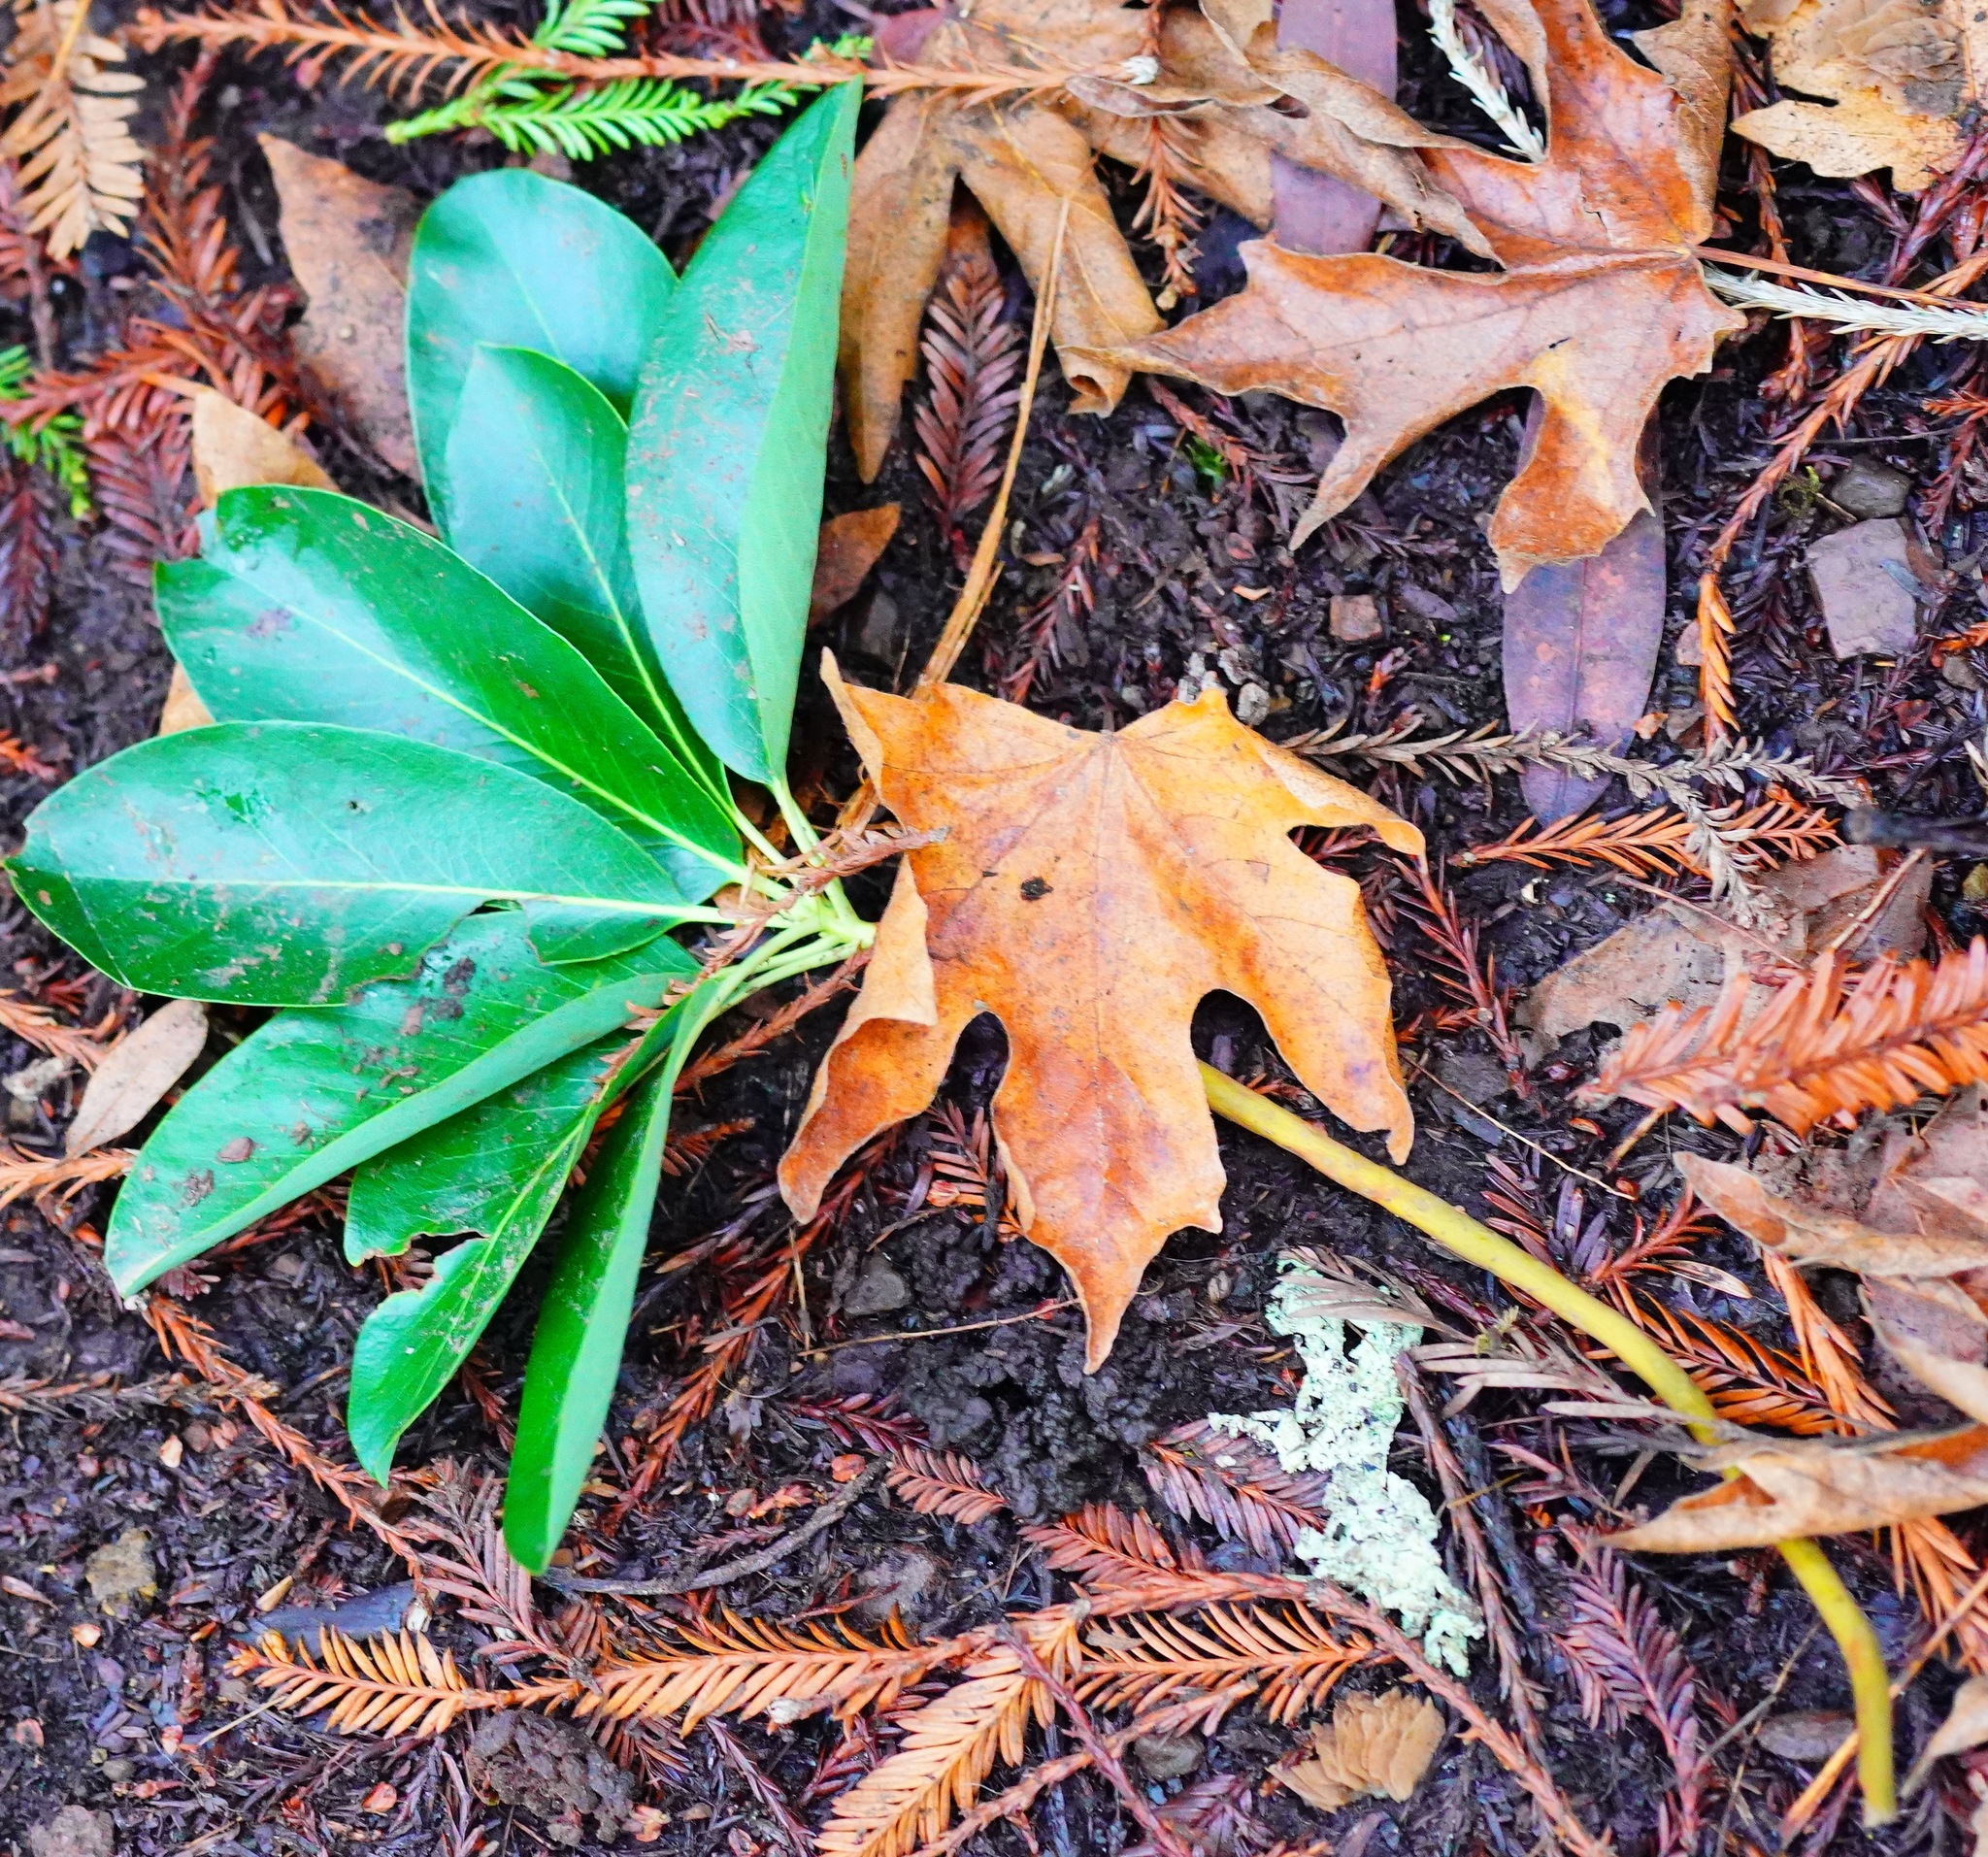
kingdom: Plantae
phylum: Tracheophyta
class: Magnoliopsida
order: Ericales
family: Ericaceae
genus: Arbutus
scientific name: Arbutus menziesii
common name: Pacific madrone
